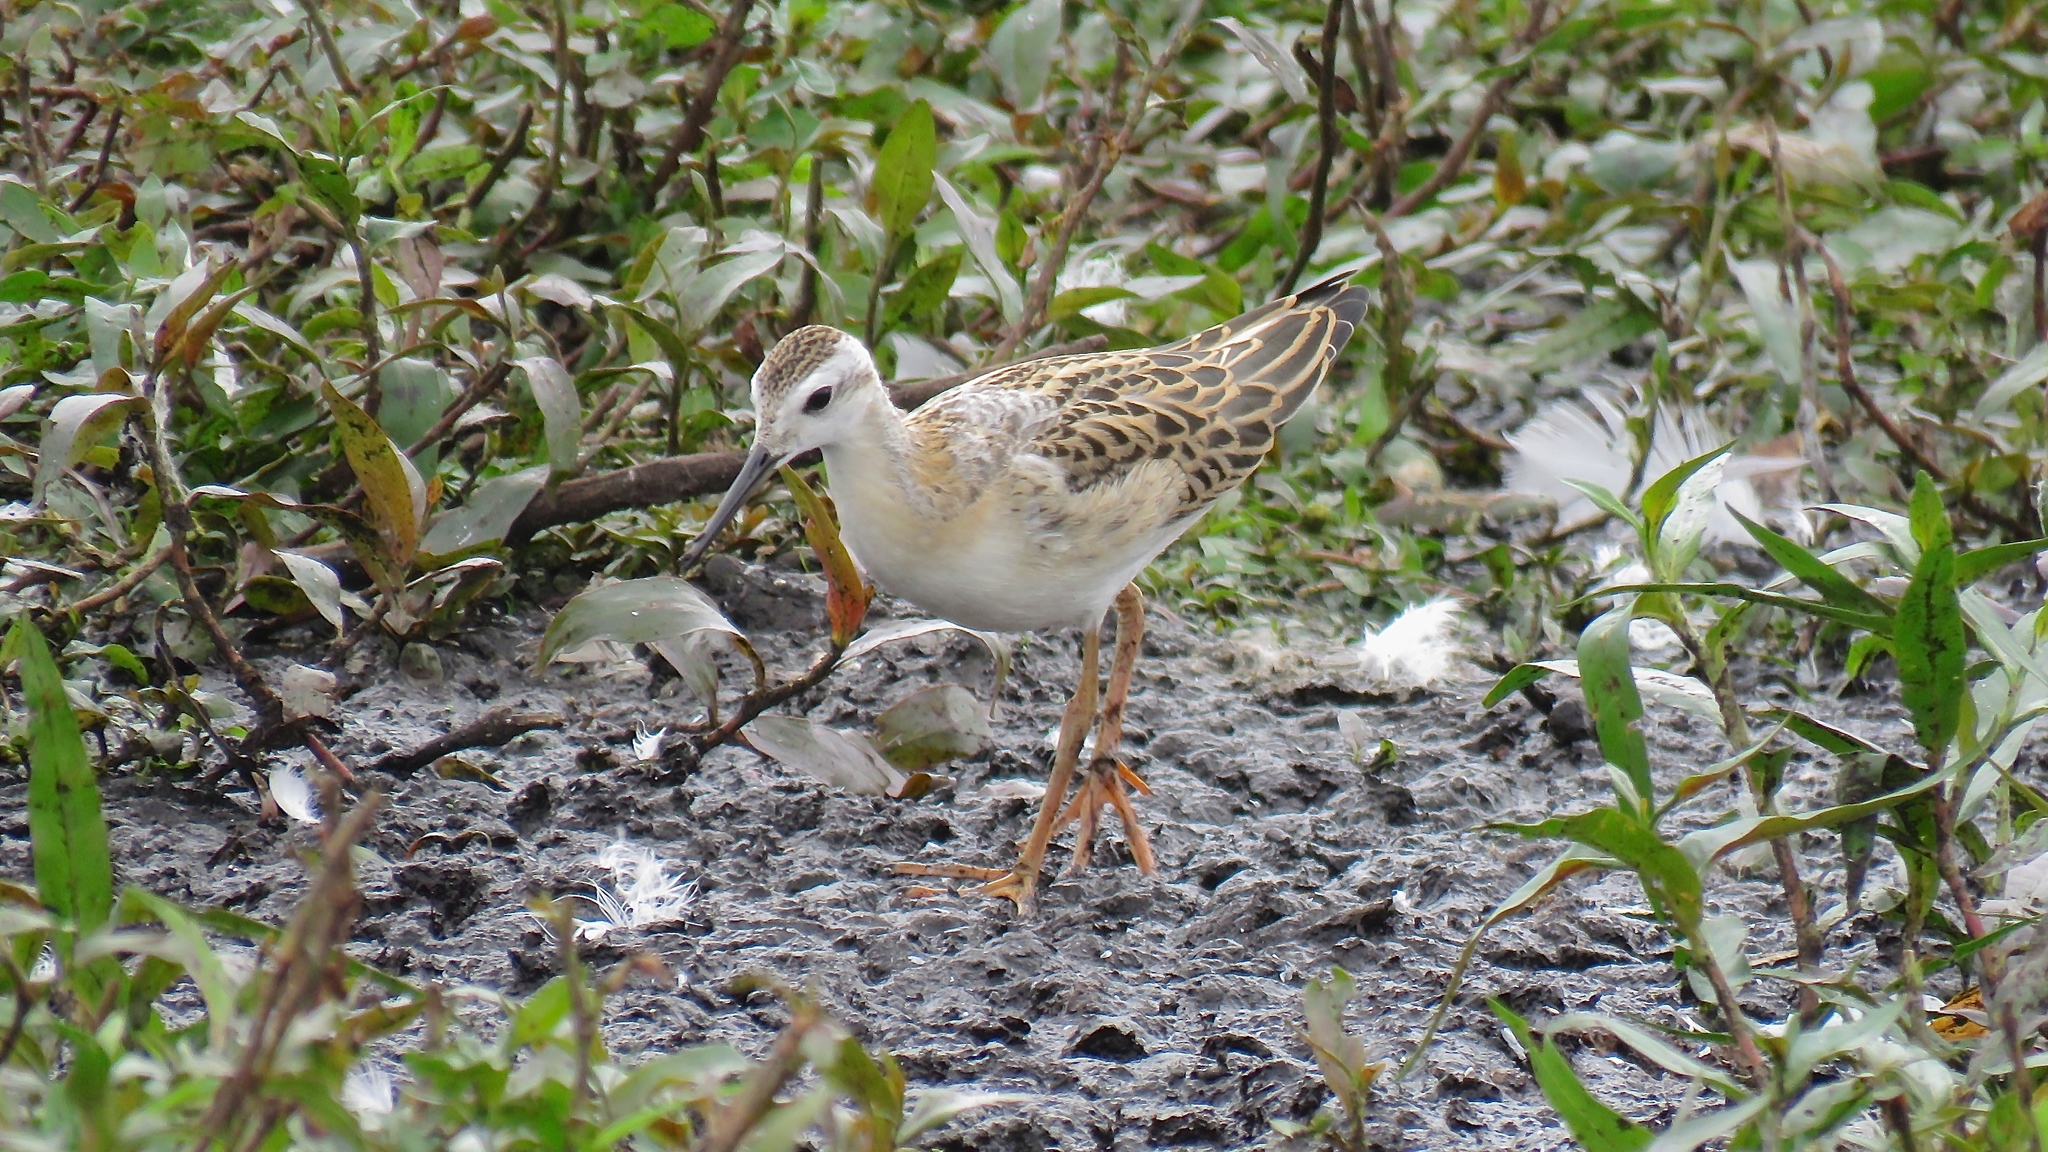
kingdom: Animalia
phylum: Chordata
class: Aves
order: Charadriiformes
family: Scolopacidae
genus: Phalaropus
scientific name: Phalaropus tricolor
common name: Wilson's phalarope
